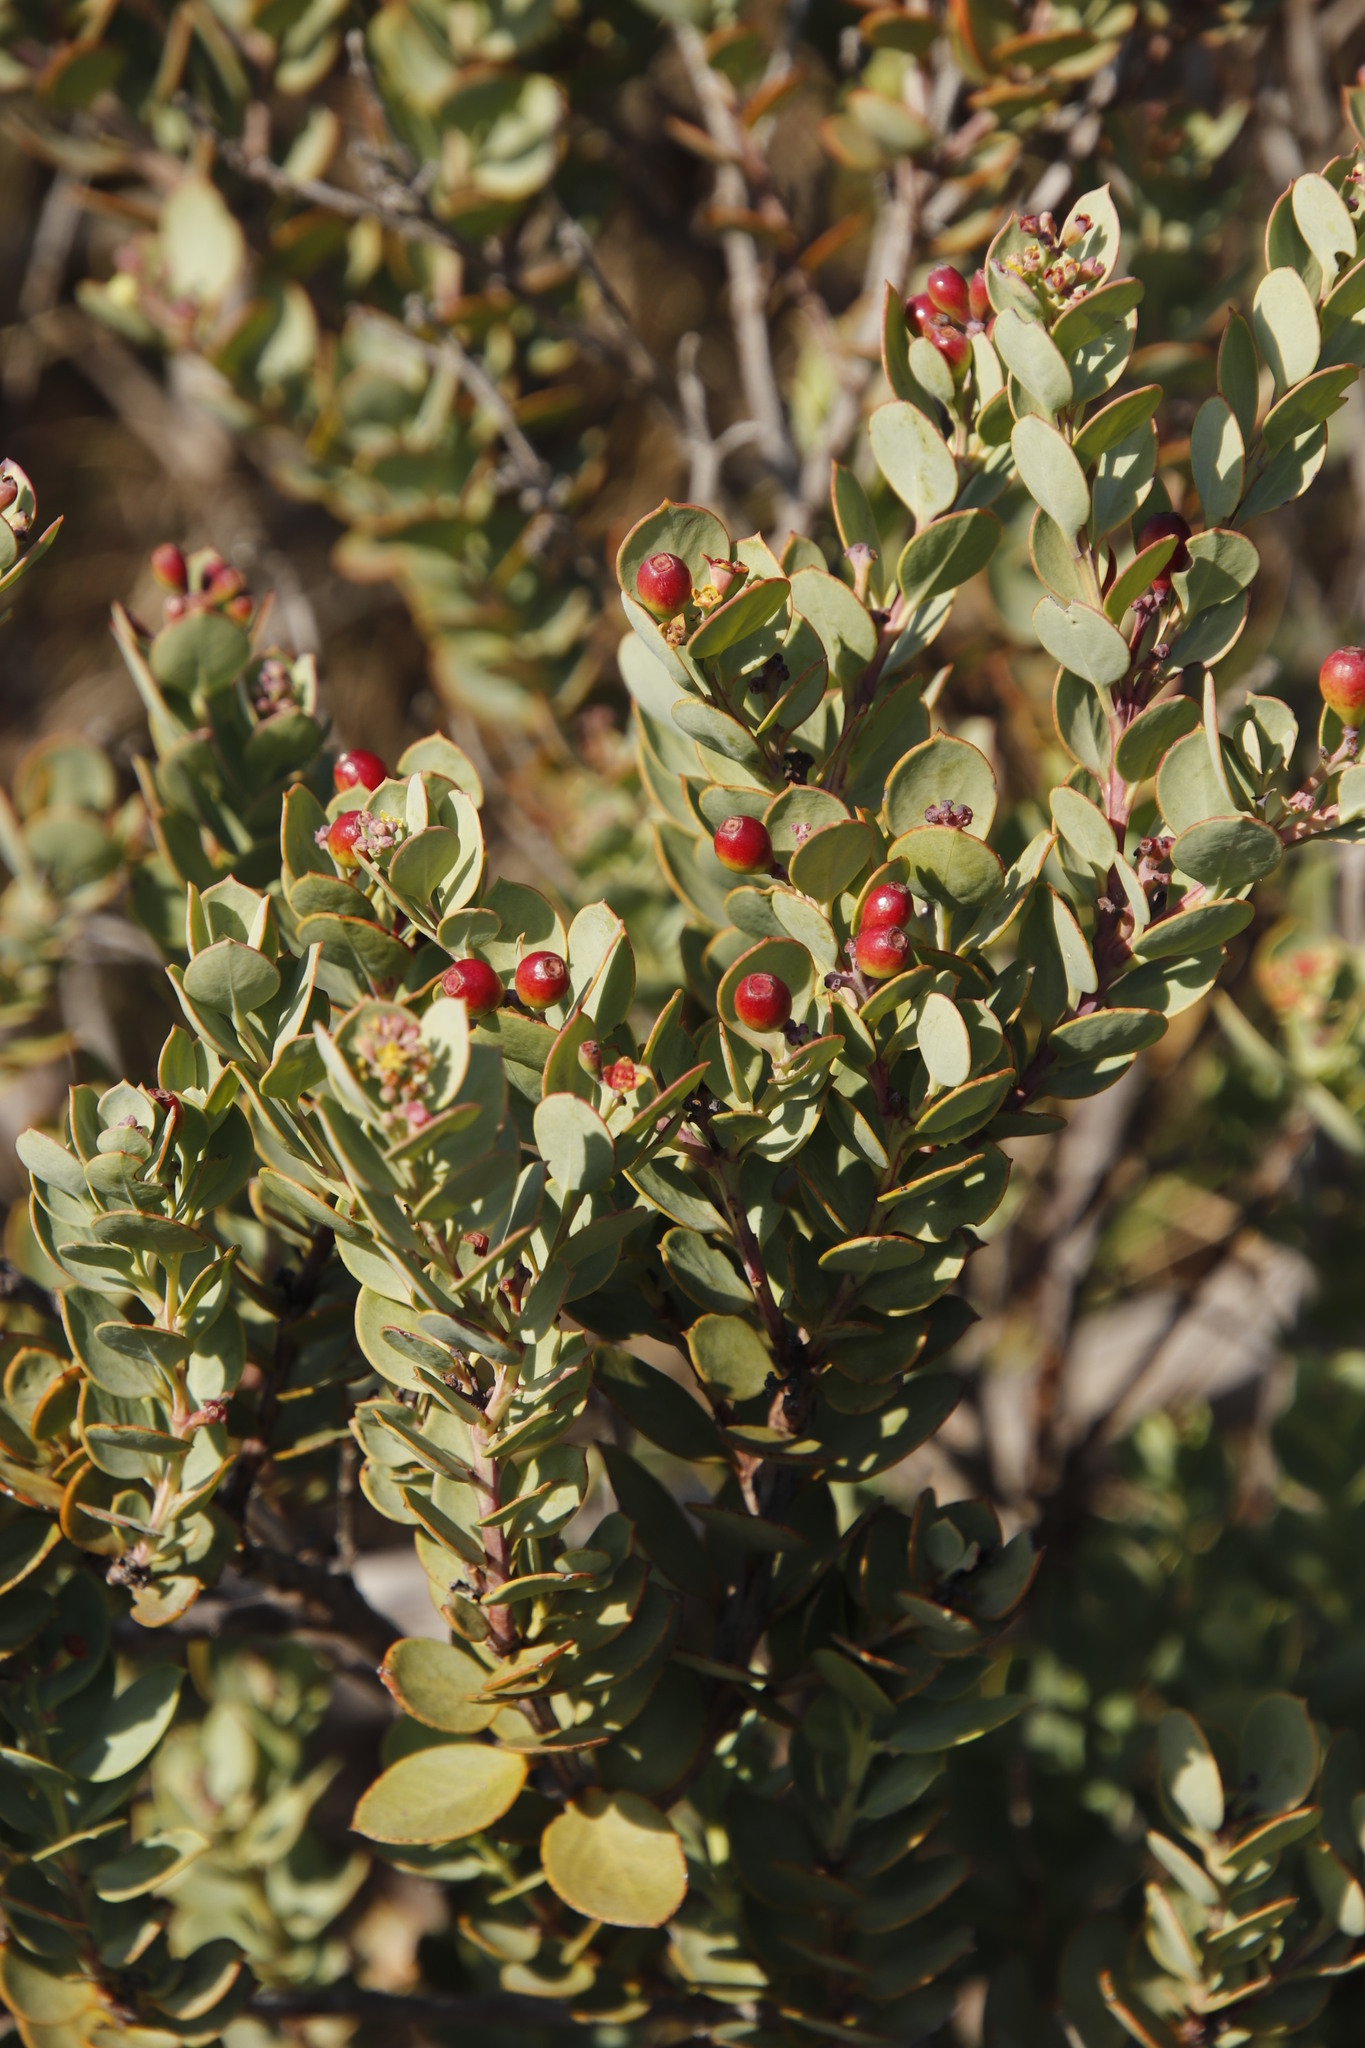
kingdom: Plantae
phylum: Tracheophyta
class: Magnoliopsida
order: Santalales
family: Santalaceae
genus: Osyris
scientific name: Osyris compressa
